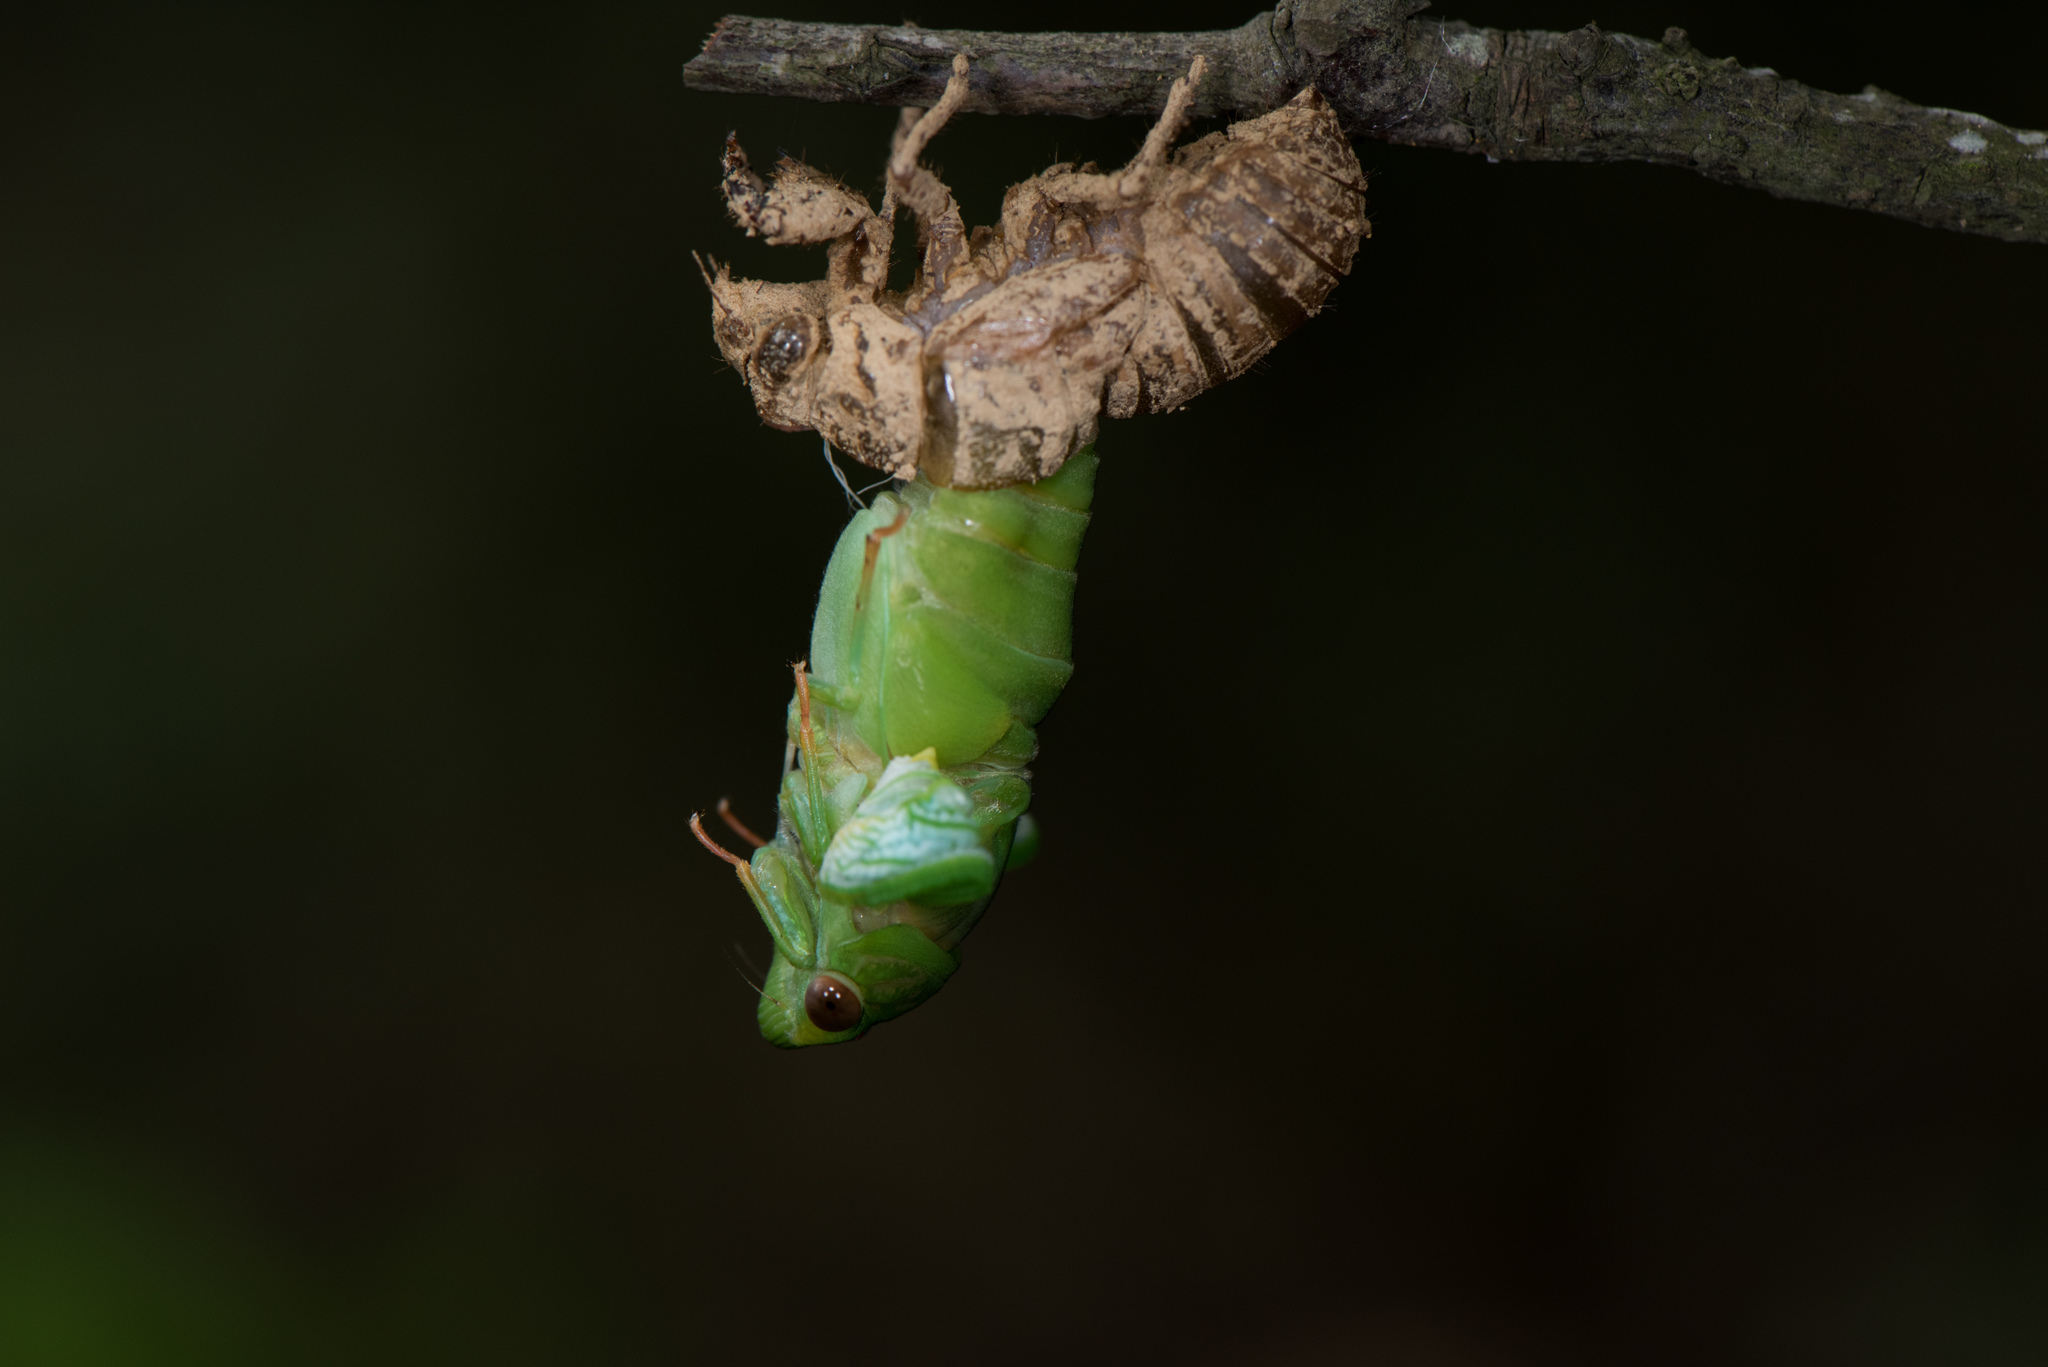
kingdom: Animalia
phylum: Arthropoda
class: Insecta
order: Hemiptera
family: Cicadidae
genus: Chremistica
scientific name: Chremistica ochracea
